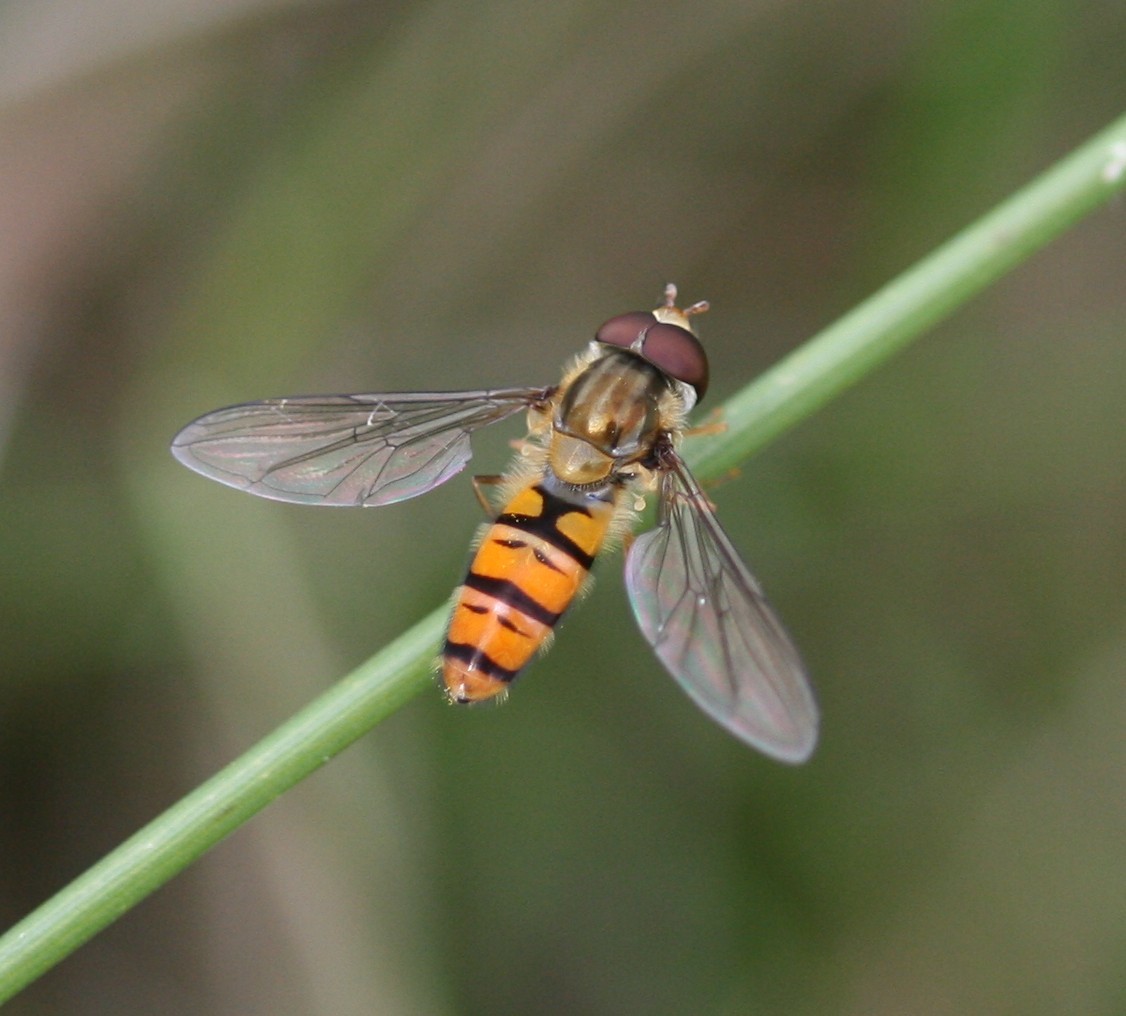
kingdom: Animalia
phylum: Arthropoda
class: Insecta
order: Diptera
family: Syrphidae
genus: Episyrphus
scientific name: Episyrphus balteatus
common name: Marmalade hoverfly
